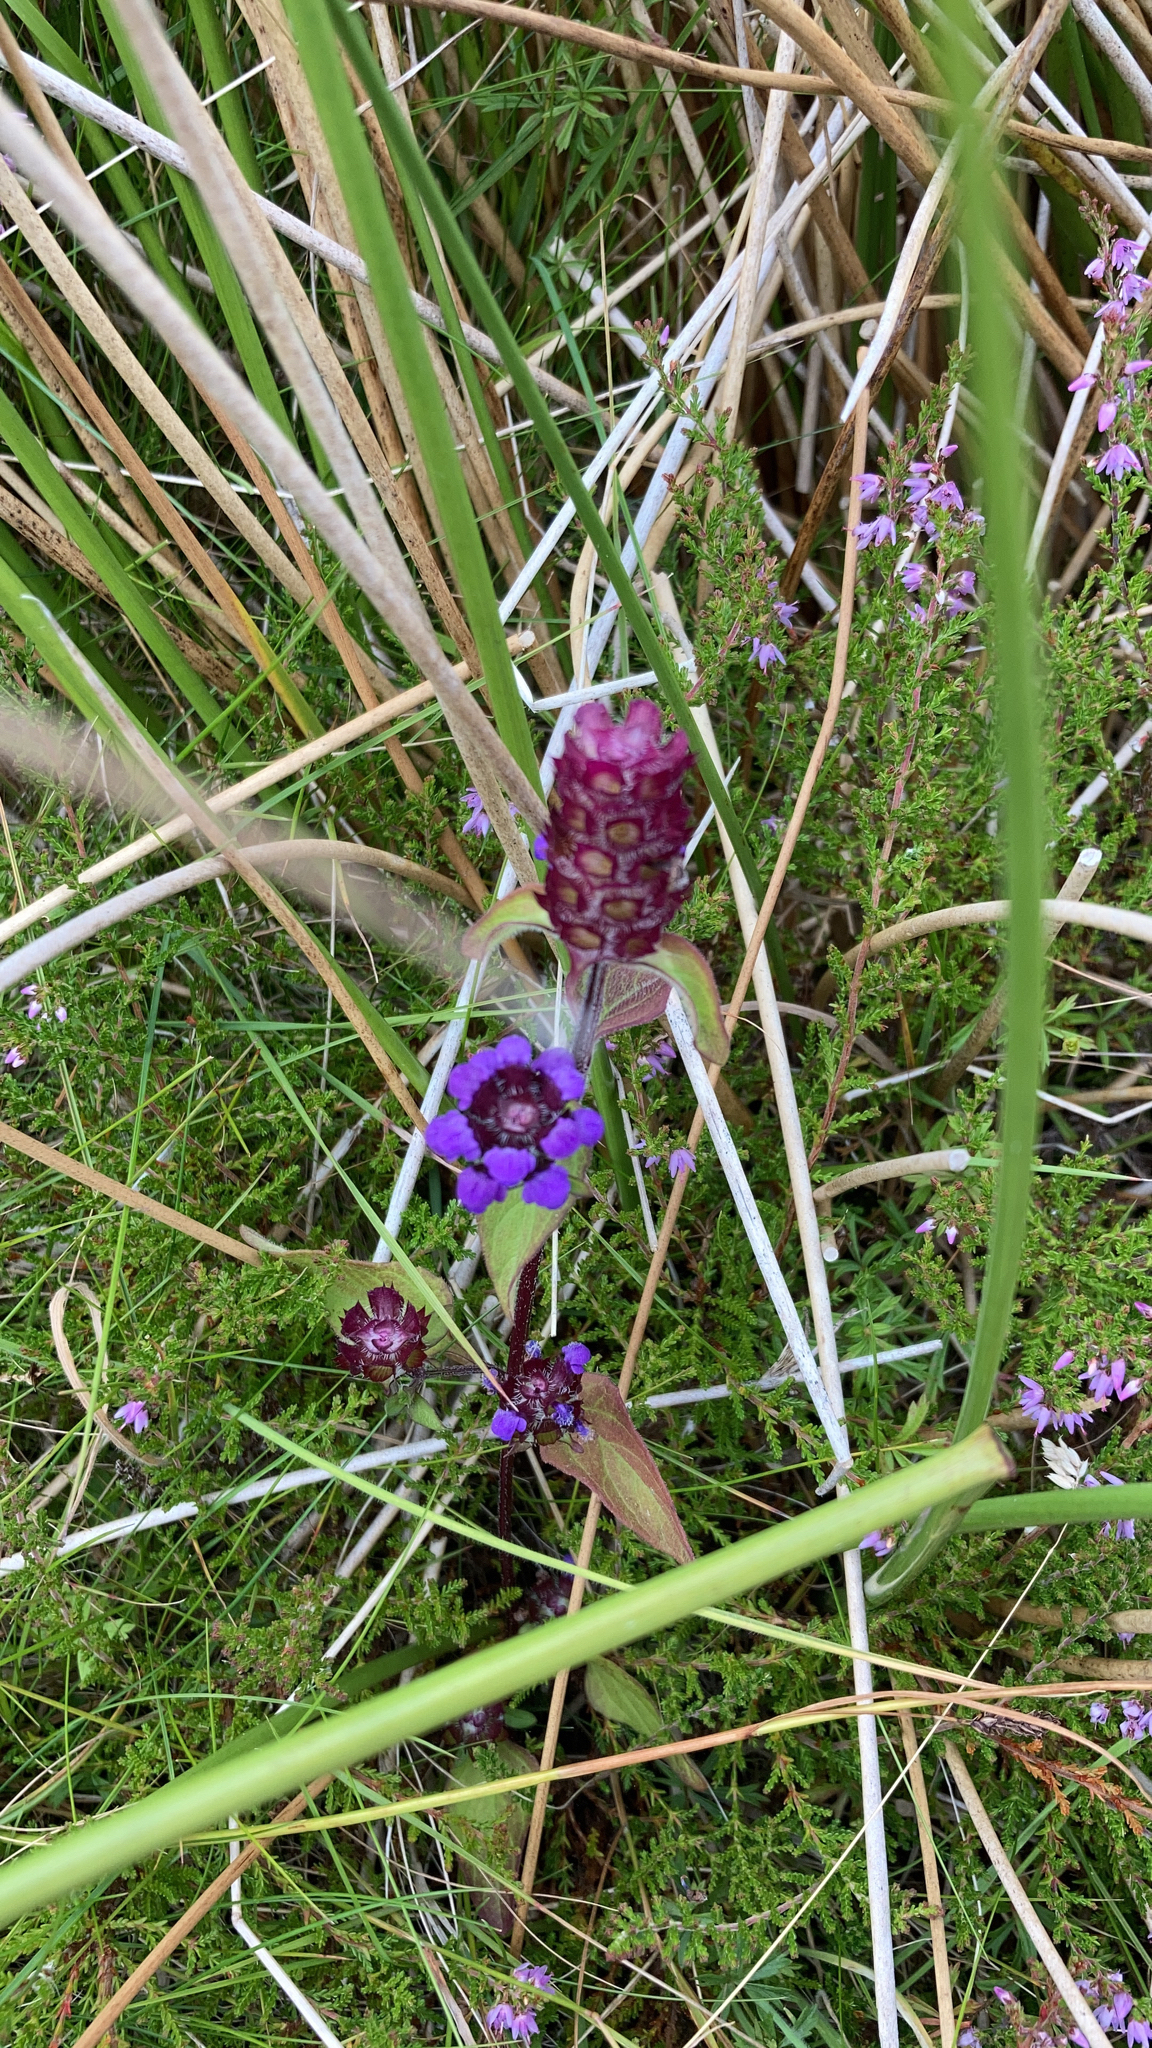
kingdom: Plantae
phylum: Tracheophyta
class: Magnoliopsida
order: Lamiales
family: Lamiaceae
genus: Prunella
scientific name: Prunella vulgaris
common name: Heal-all
